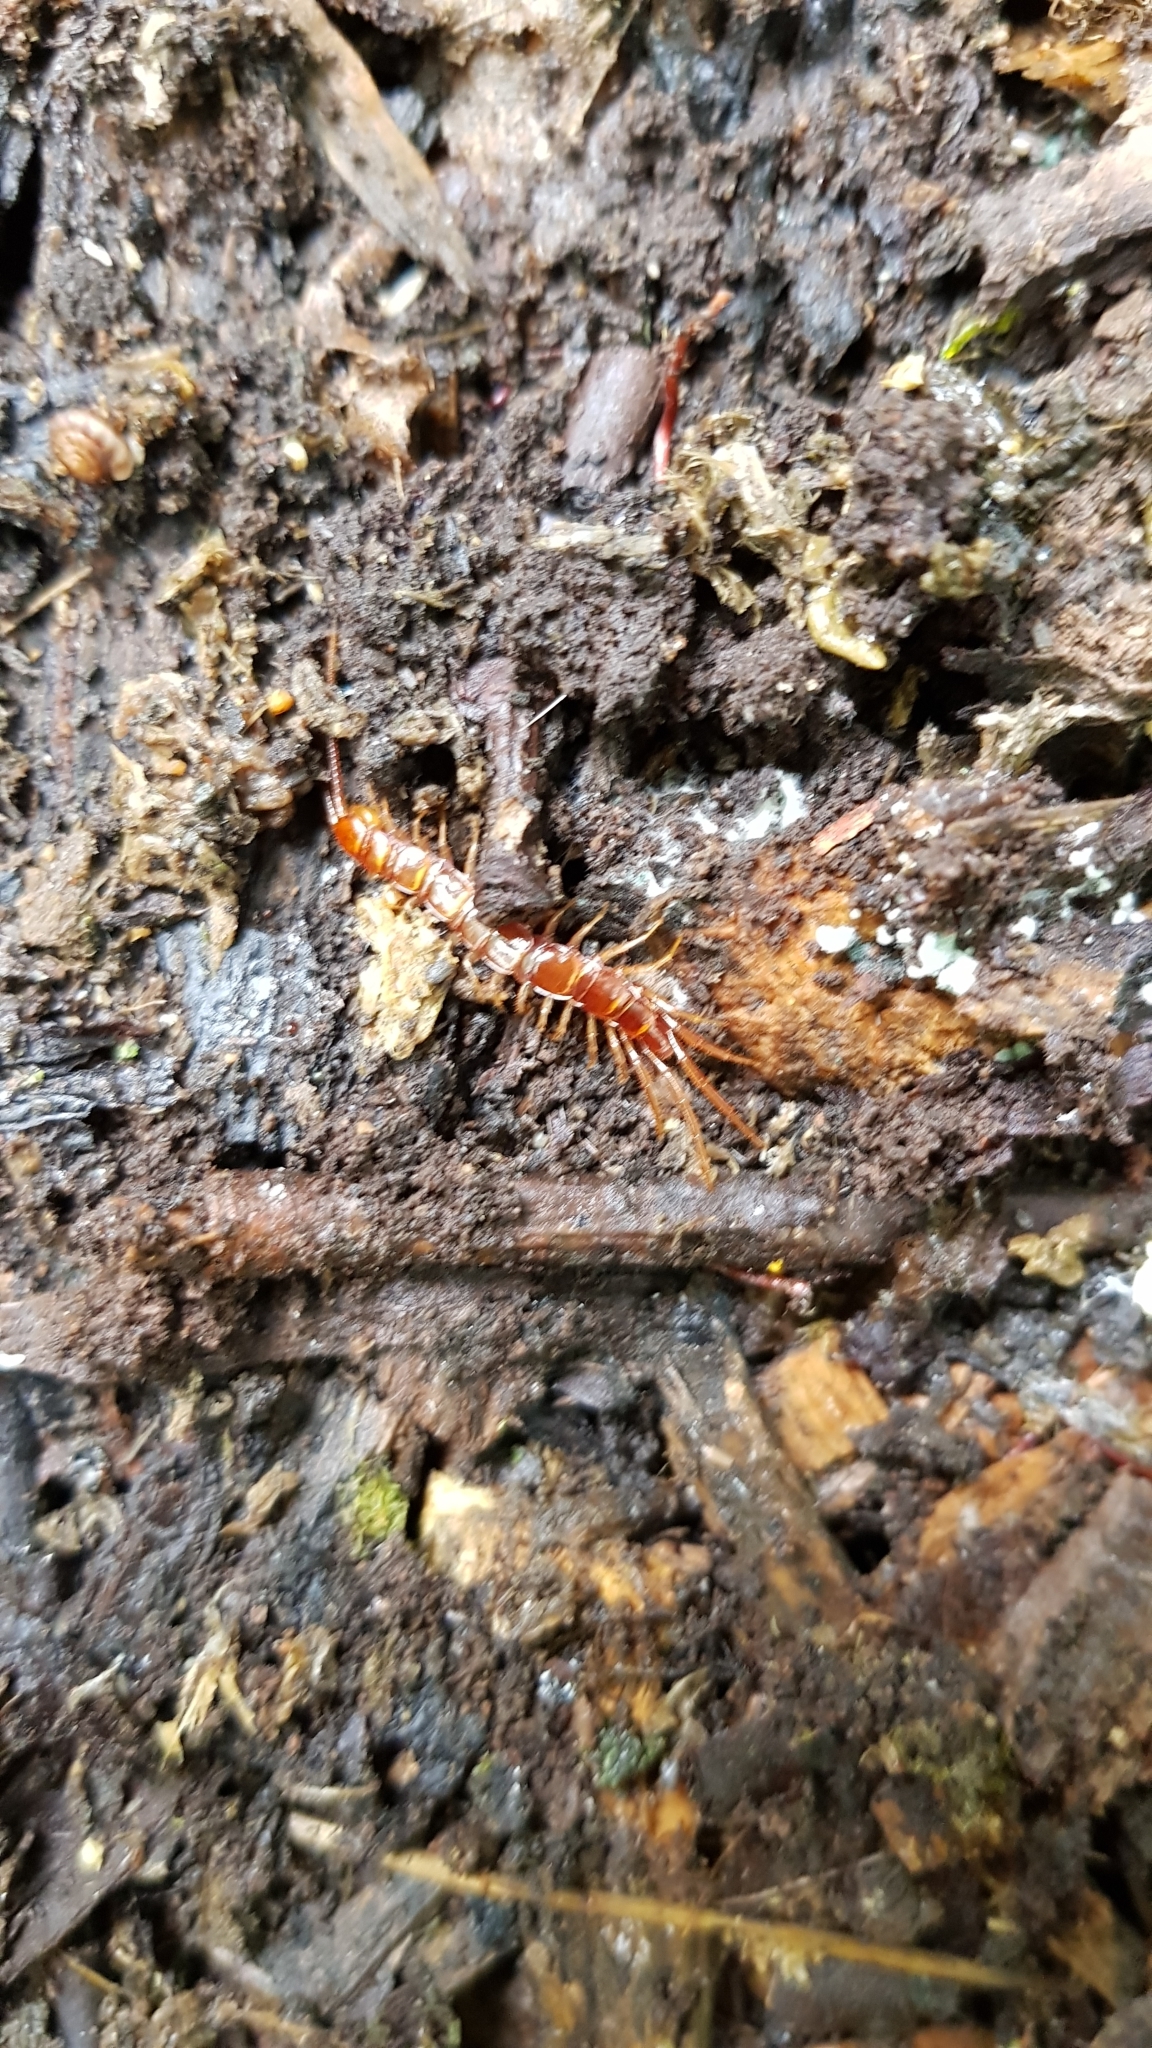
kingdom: Animalia
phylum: Arthropoda
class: Chilopoda
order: Lithobiomorpha
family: Lithobiidae
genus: Lithobius
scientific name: Lithobius forficatus
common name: Centipede
